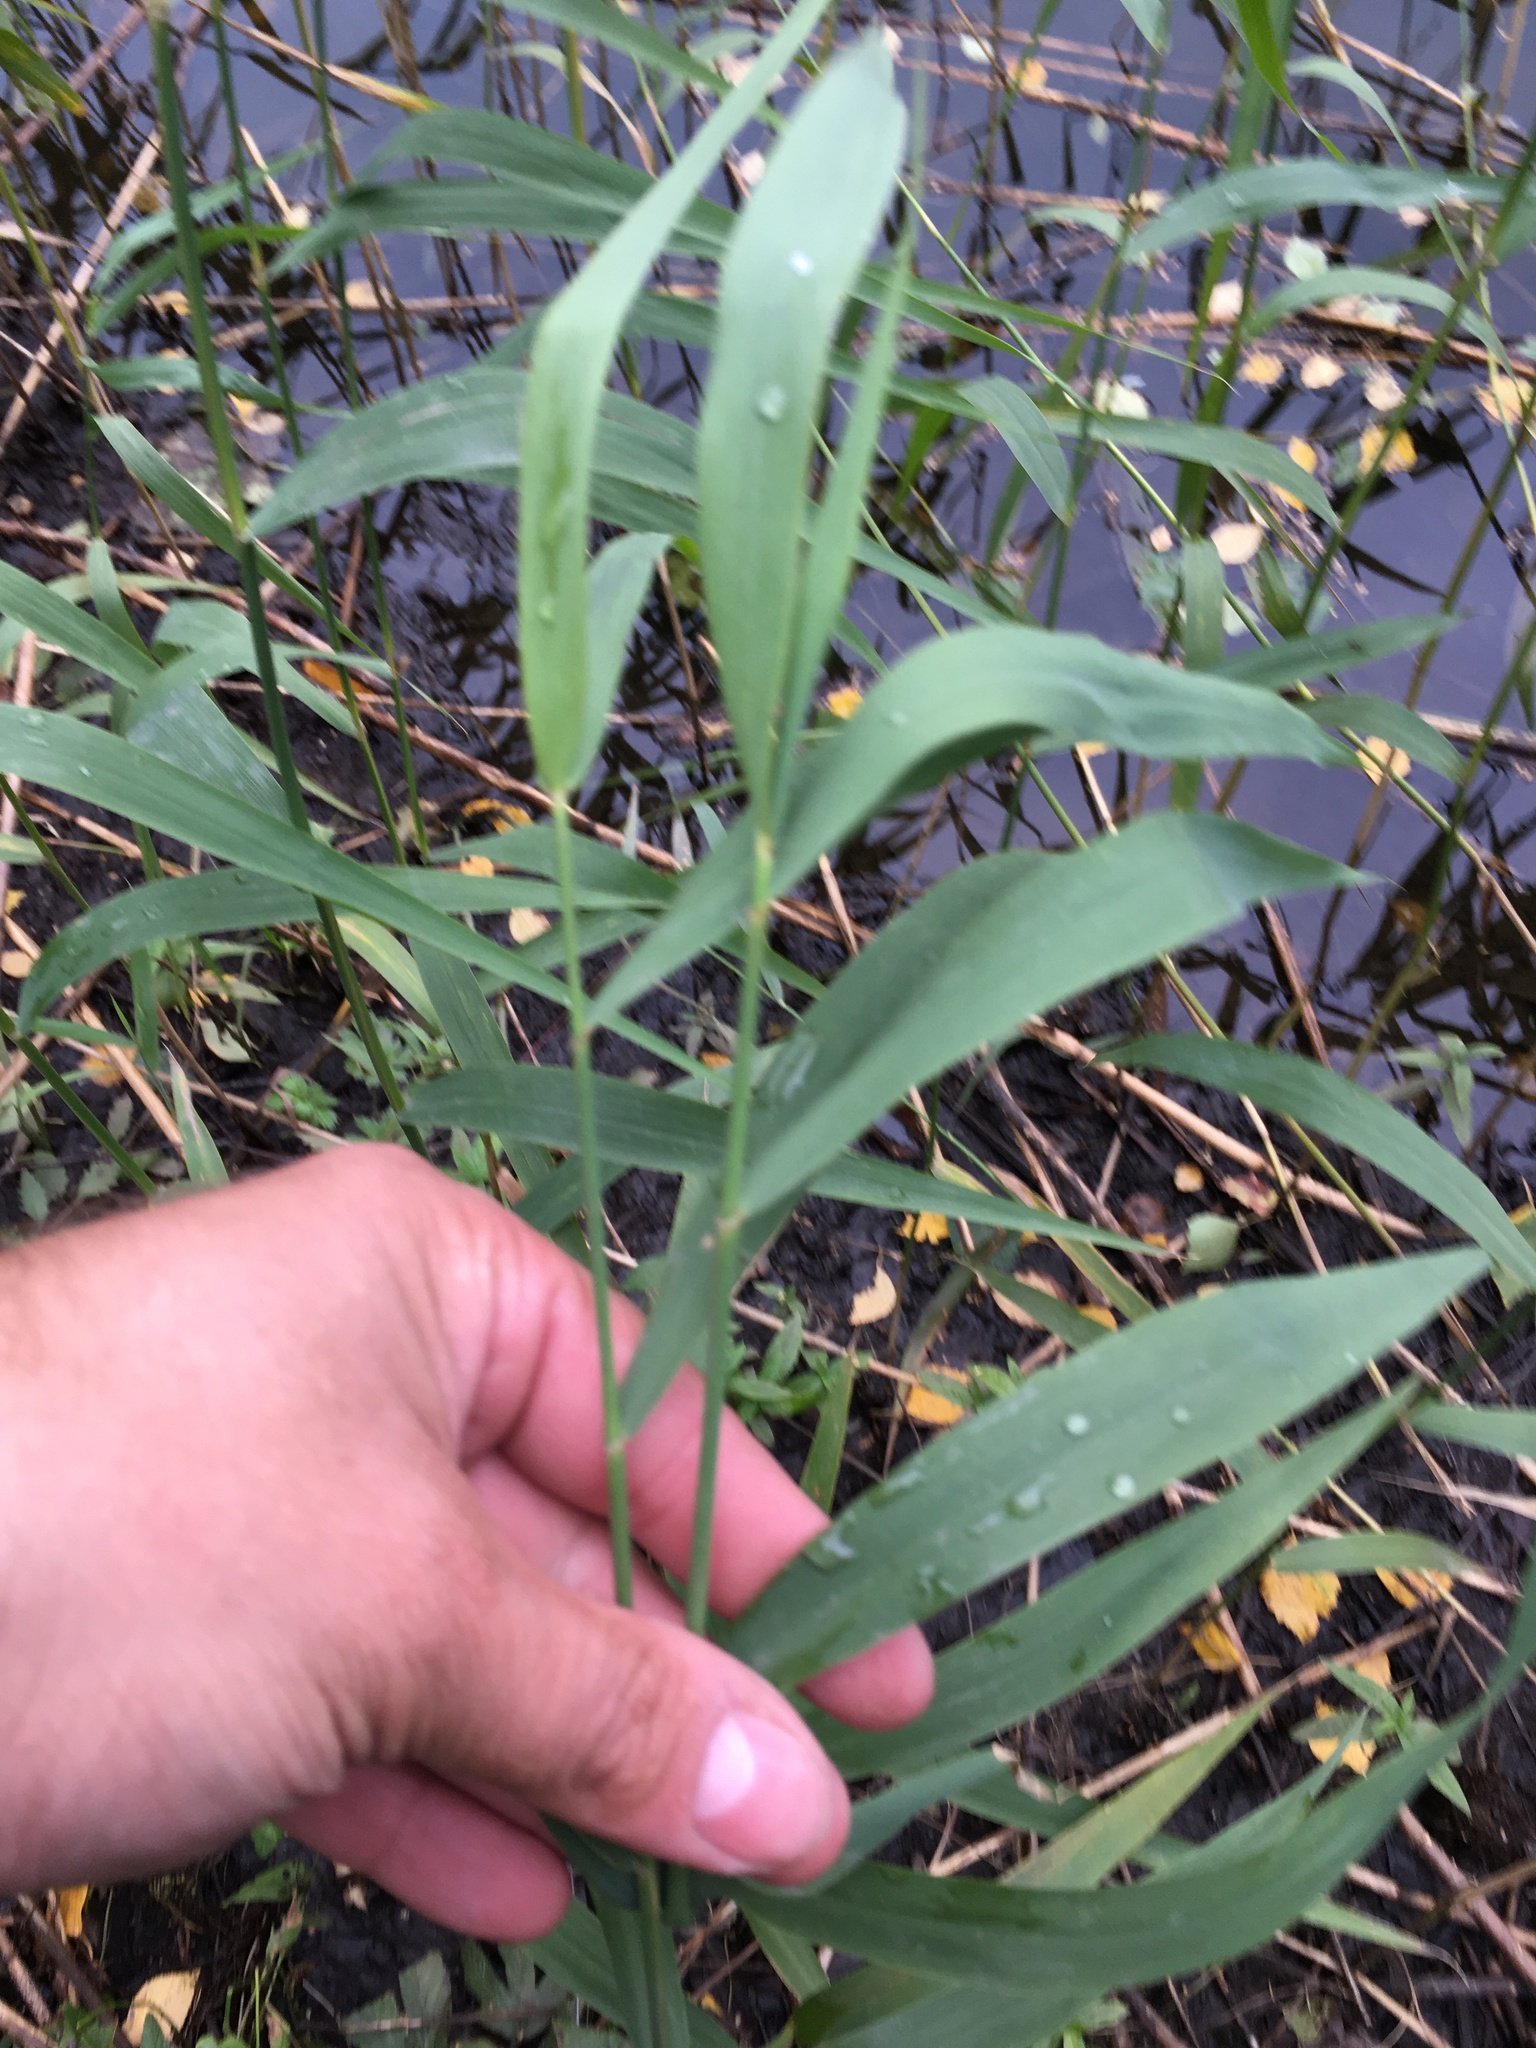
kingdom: Plantae
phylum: Tracheophyta
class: Liliopsida
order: Poales
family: Poaceae
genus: Phalaris
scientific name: Phalaris arundinacea
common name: Reed canary-grass
